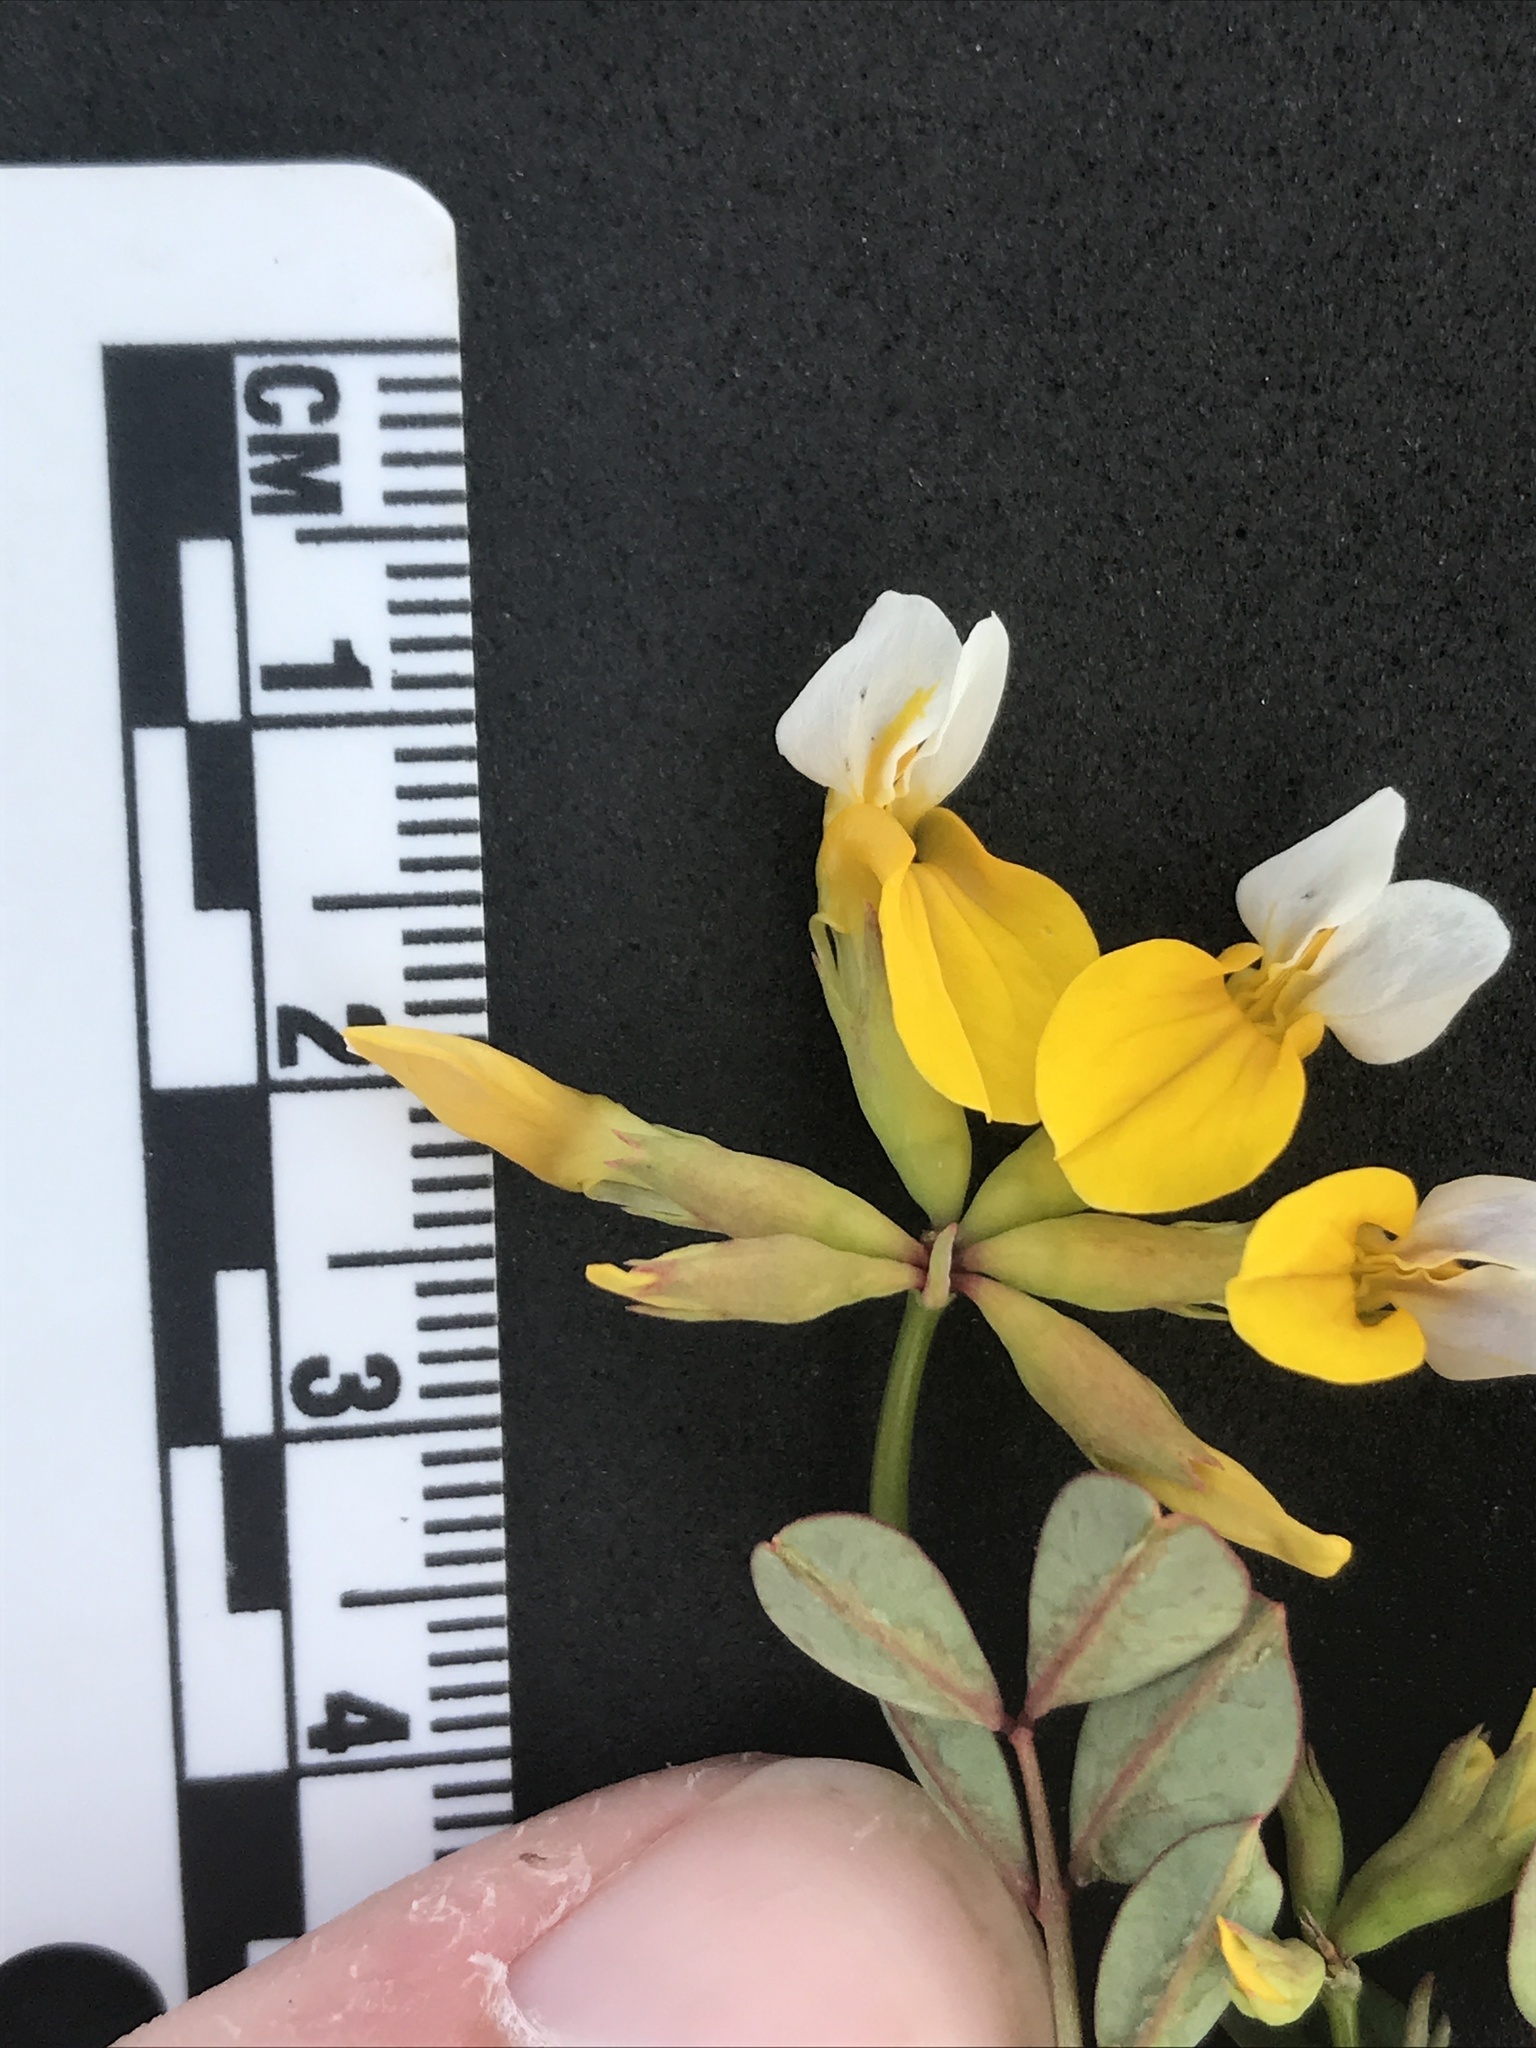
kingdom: Plantae
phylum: Tracheophyta
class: Magnoliopsida
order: Fabales
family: Fabaceae
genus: Hosackia
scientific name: Hosackia pinnata
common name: Bog bird's-foot trefoil
